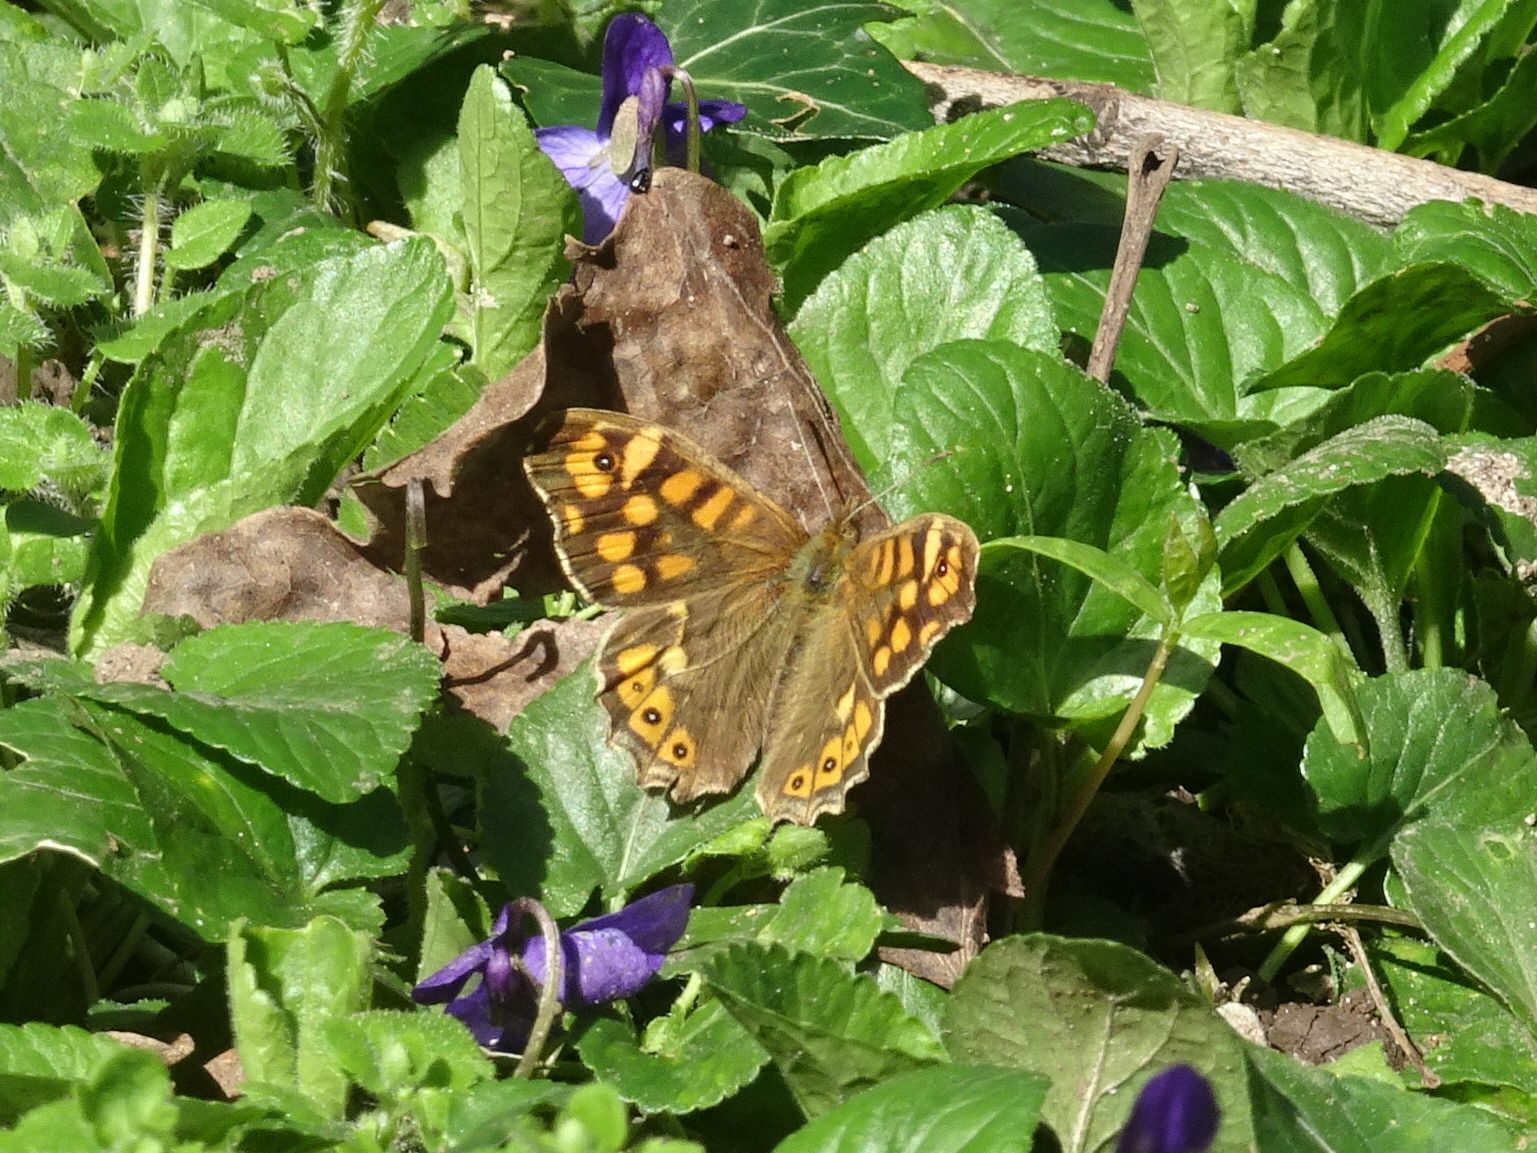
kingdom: Animalia
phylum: Arthropoda
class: Insecta
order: Lepidoptera
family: Nymphalidae
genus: Pararge
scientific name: Pararge aegeria
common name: Speckled wood
